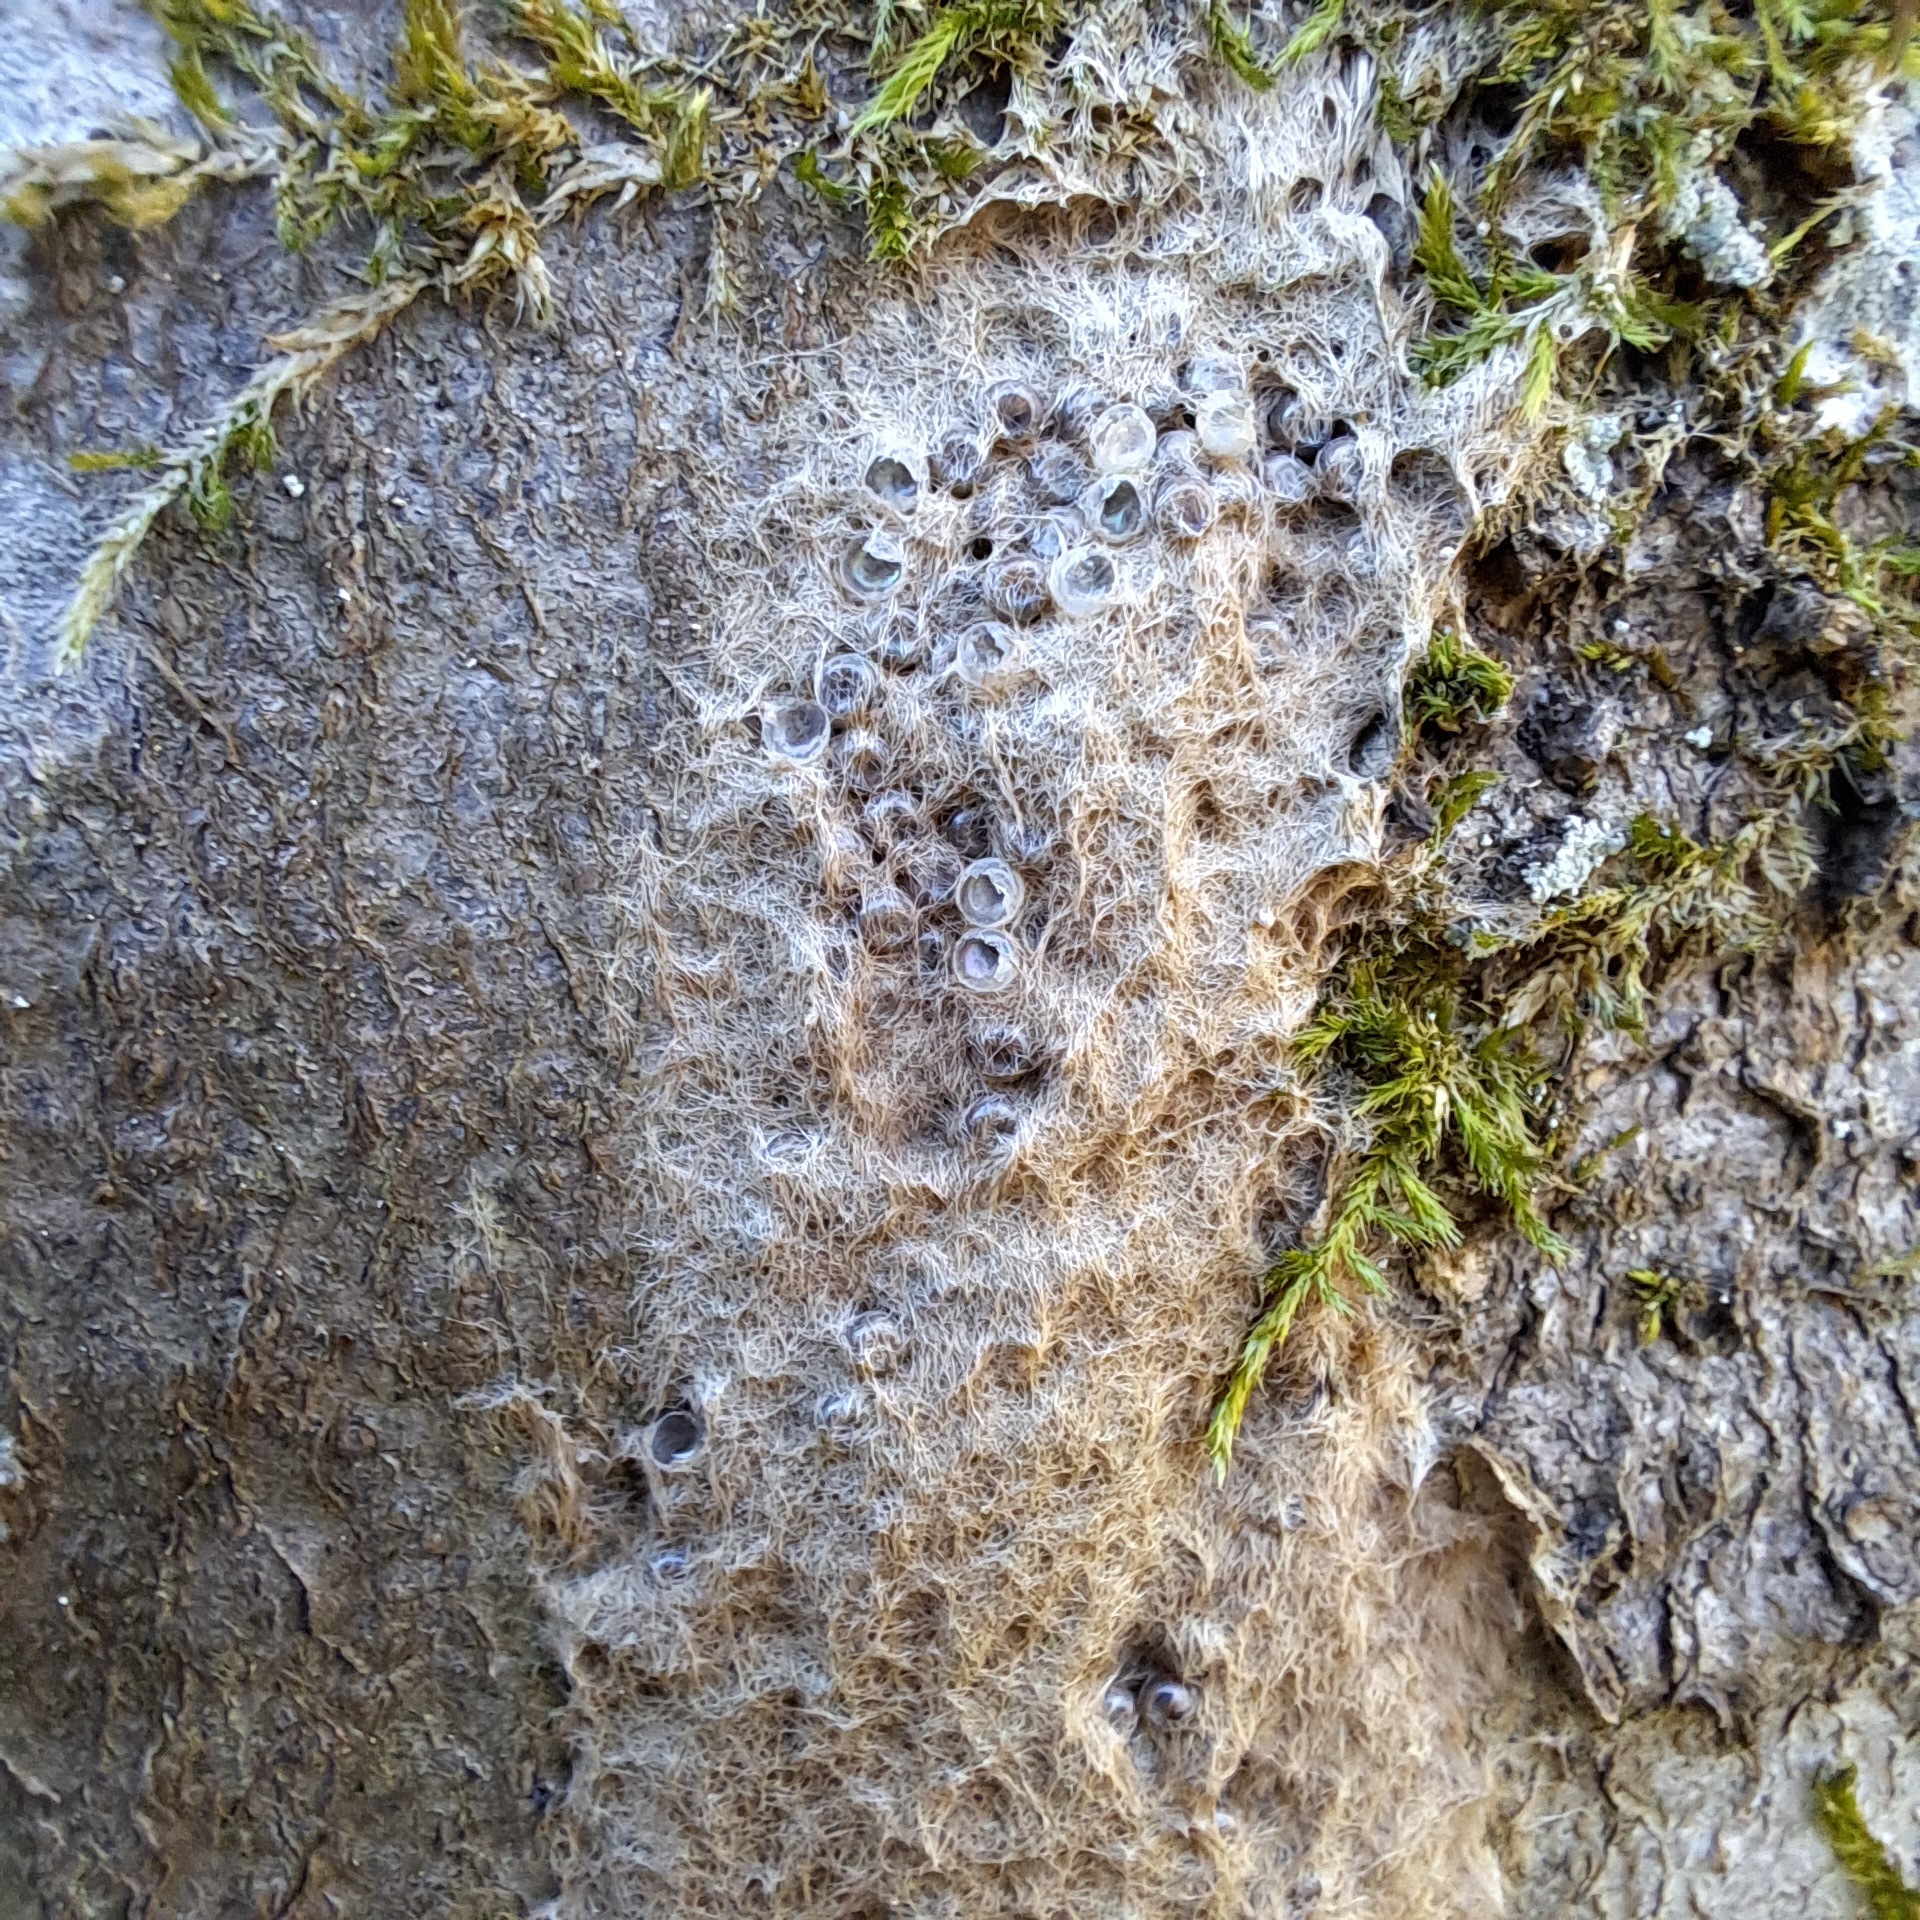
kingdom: Animalia
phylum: Arthropoda
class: Insecta
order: Lepidoptera
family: Erebidae
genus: Lymantria
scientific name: Lymantria dispar
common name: Gypsy moth
